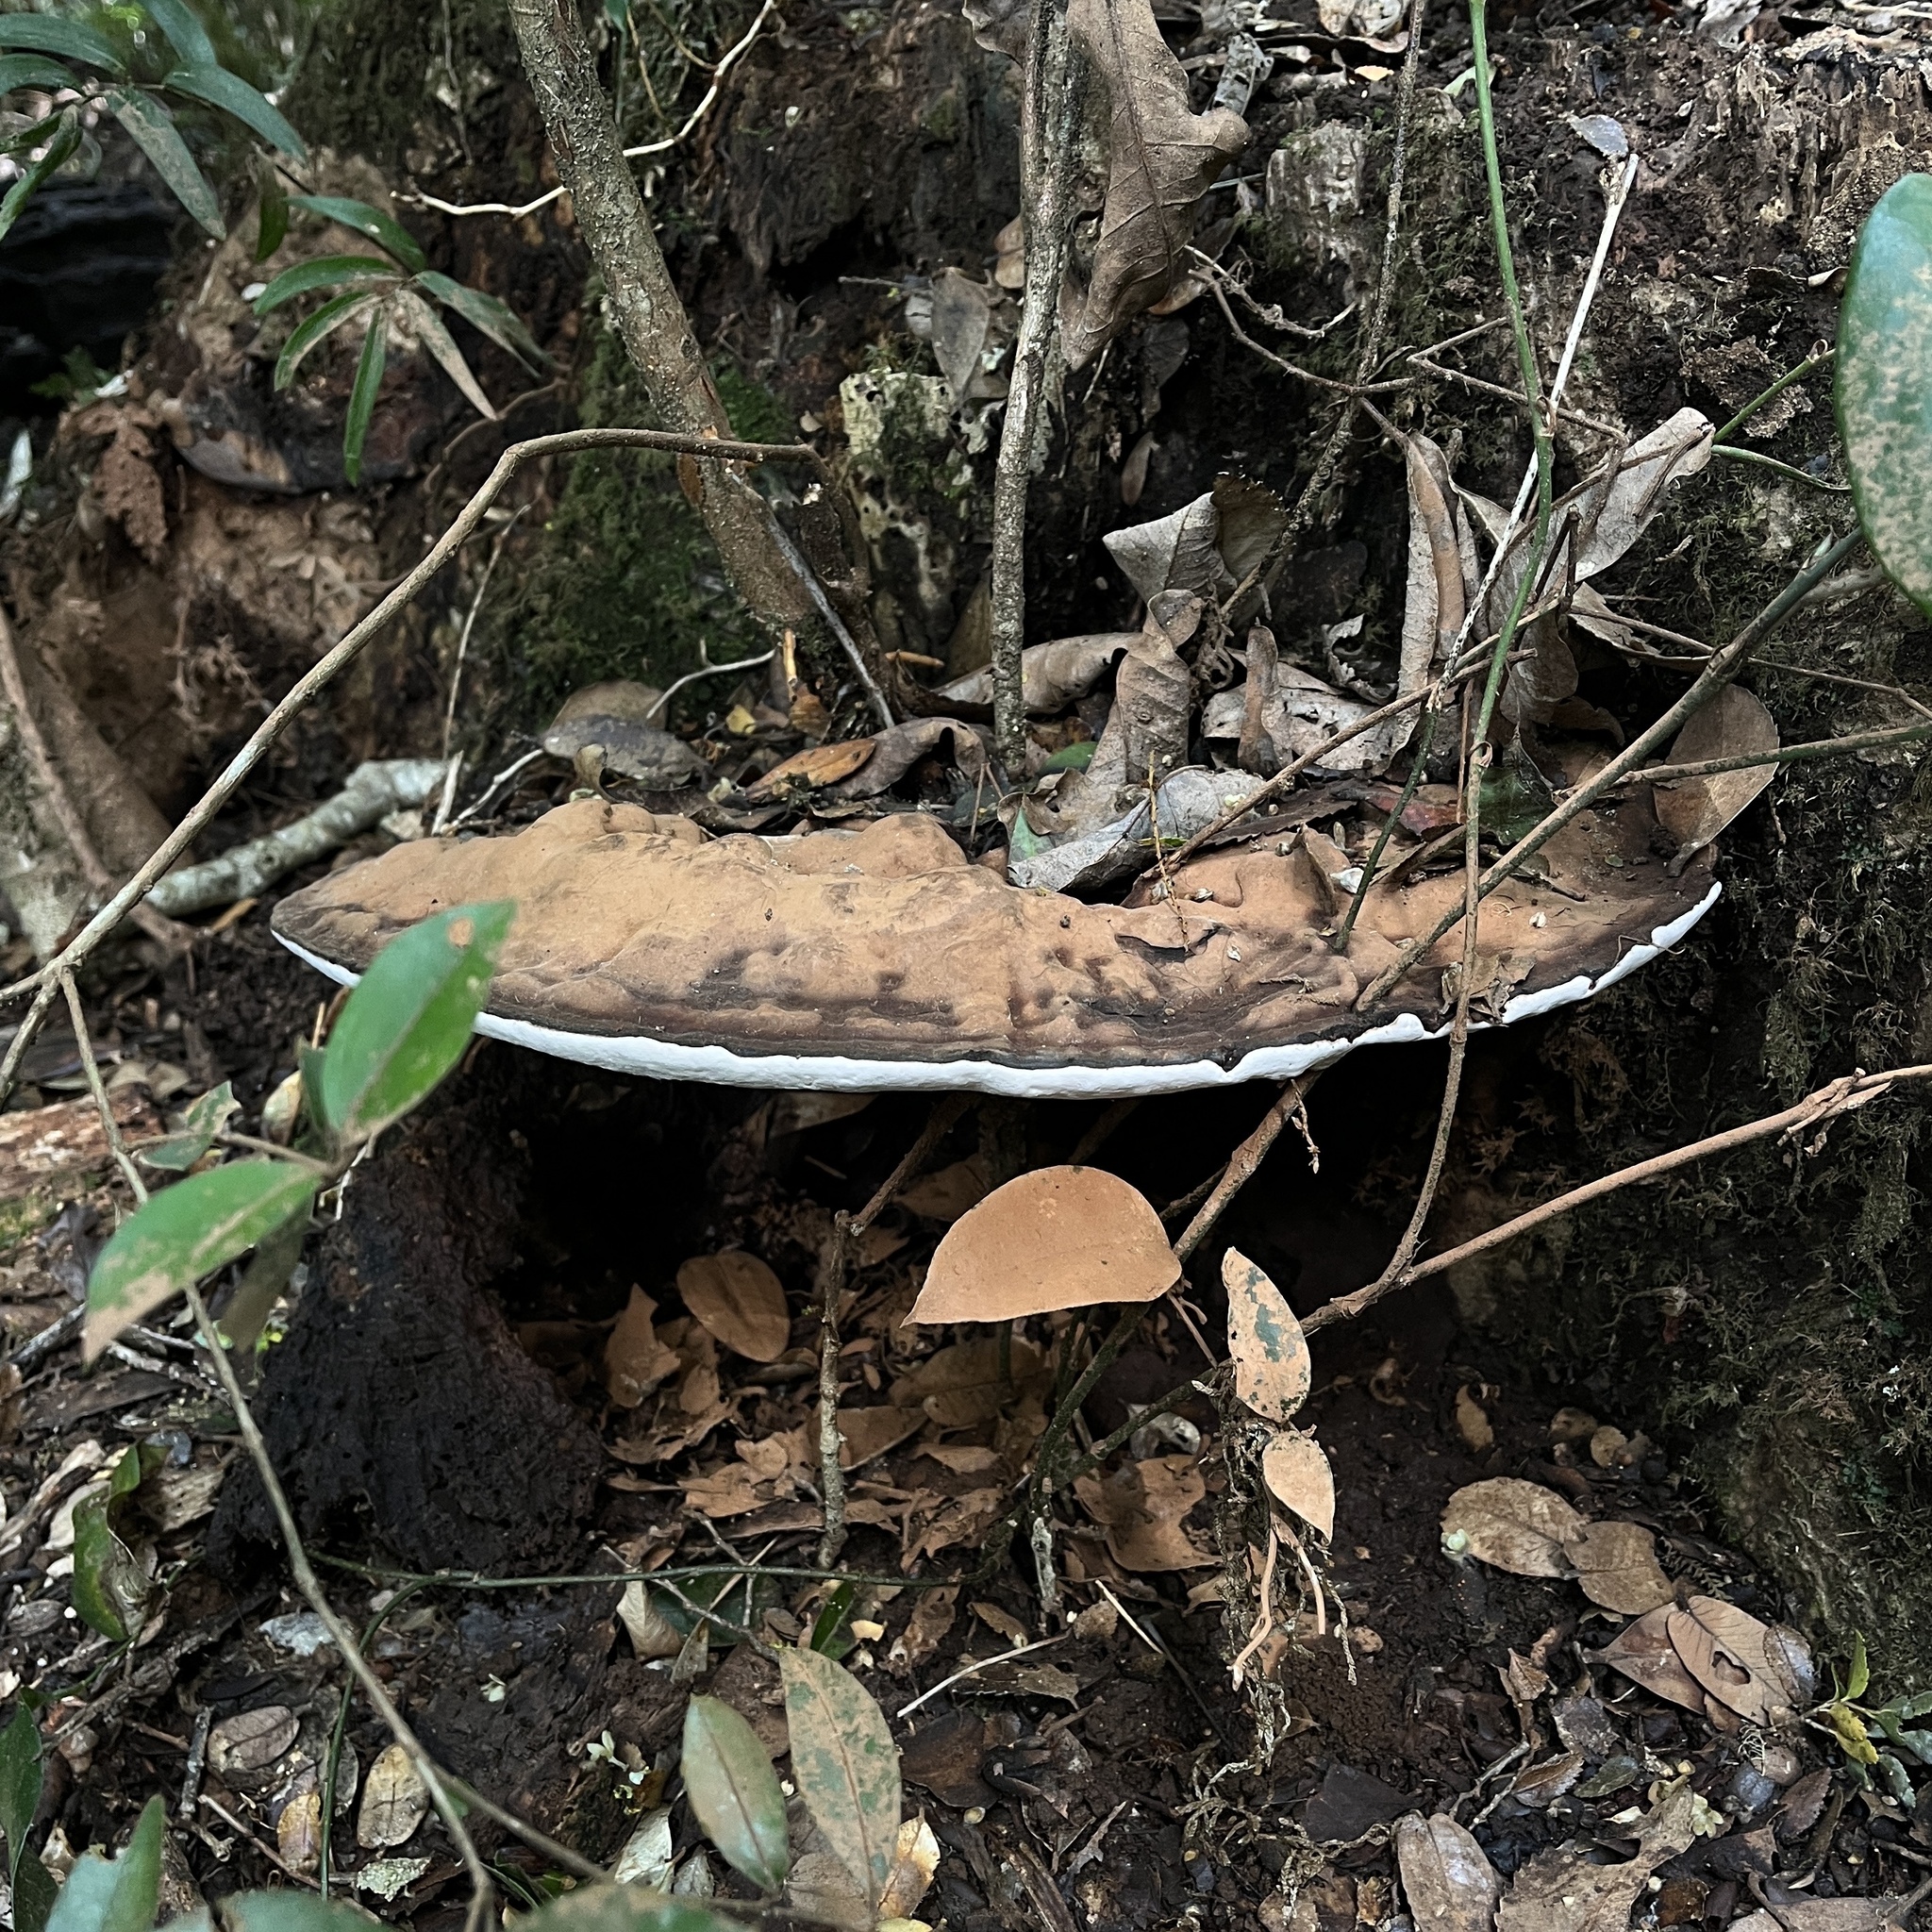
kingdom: Fungi
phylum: Basidiomycota
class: Agaricomycetes
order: Polyporales
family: Polyporaceae
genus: Ganoderma
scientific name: Ganoderma australe
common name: Southern bracket
